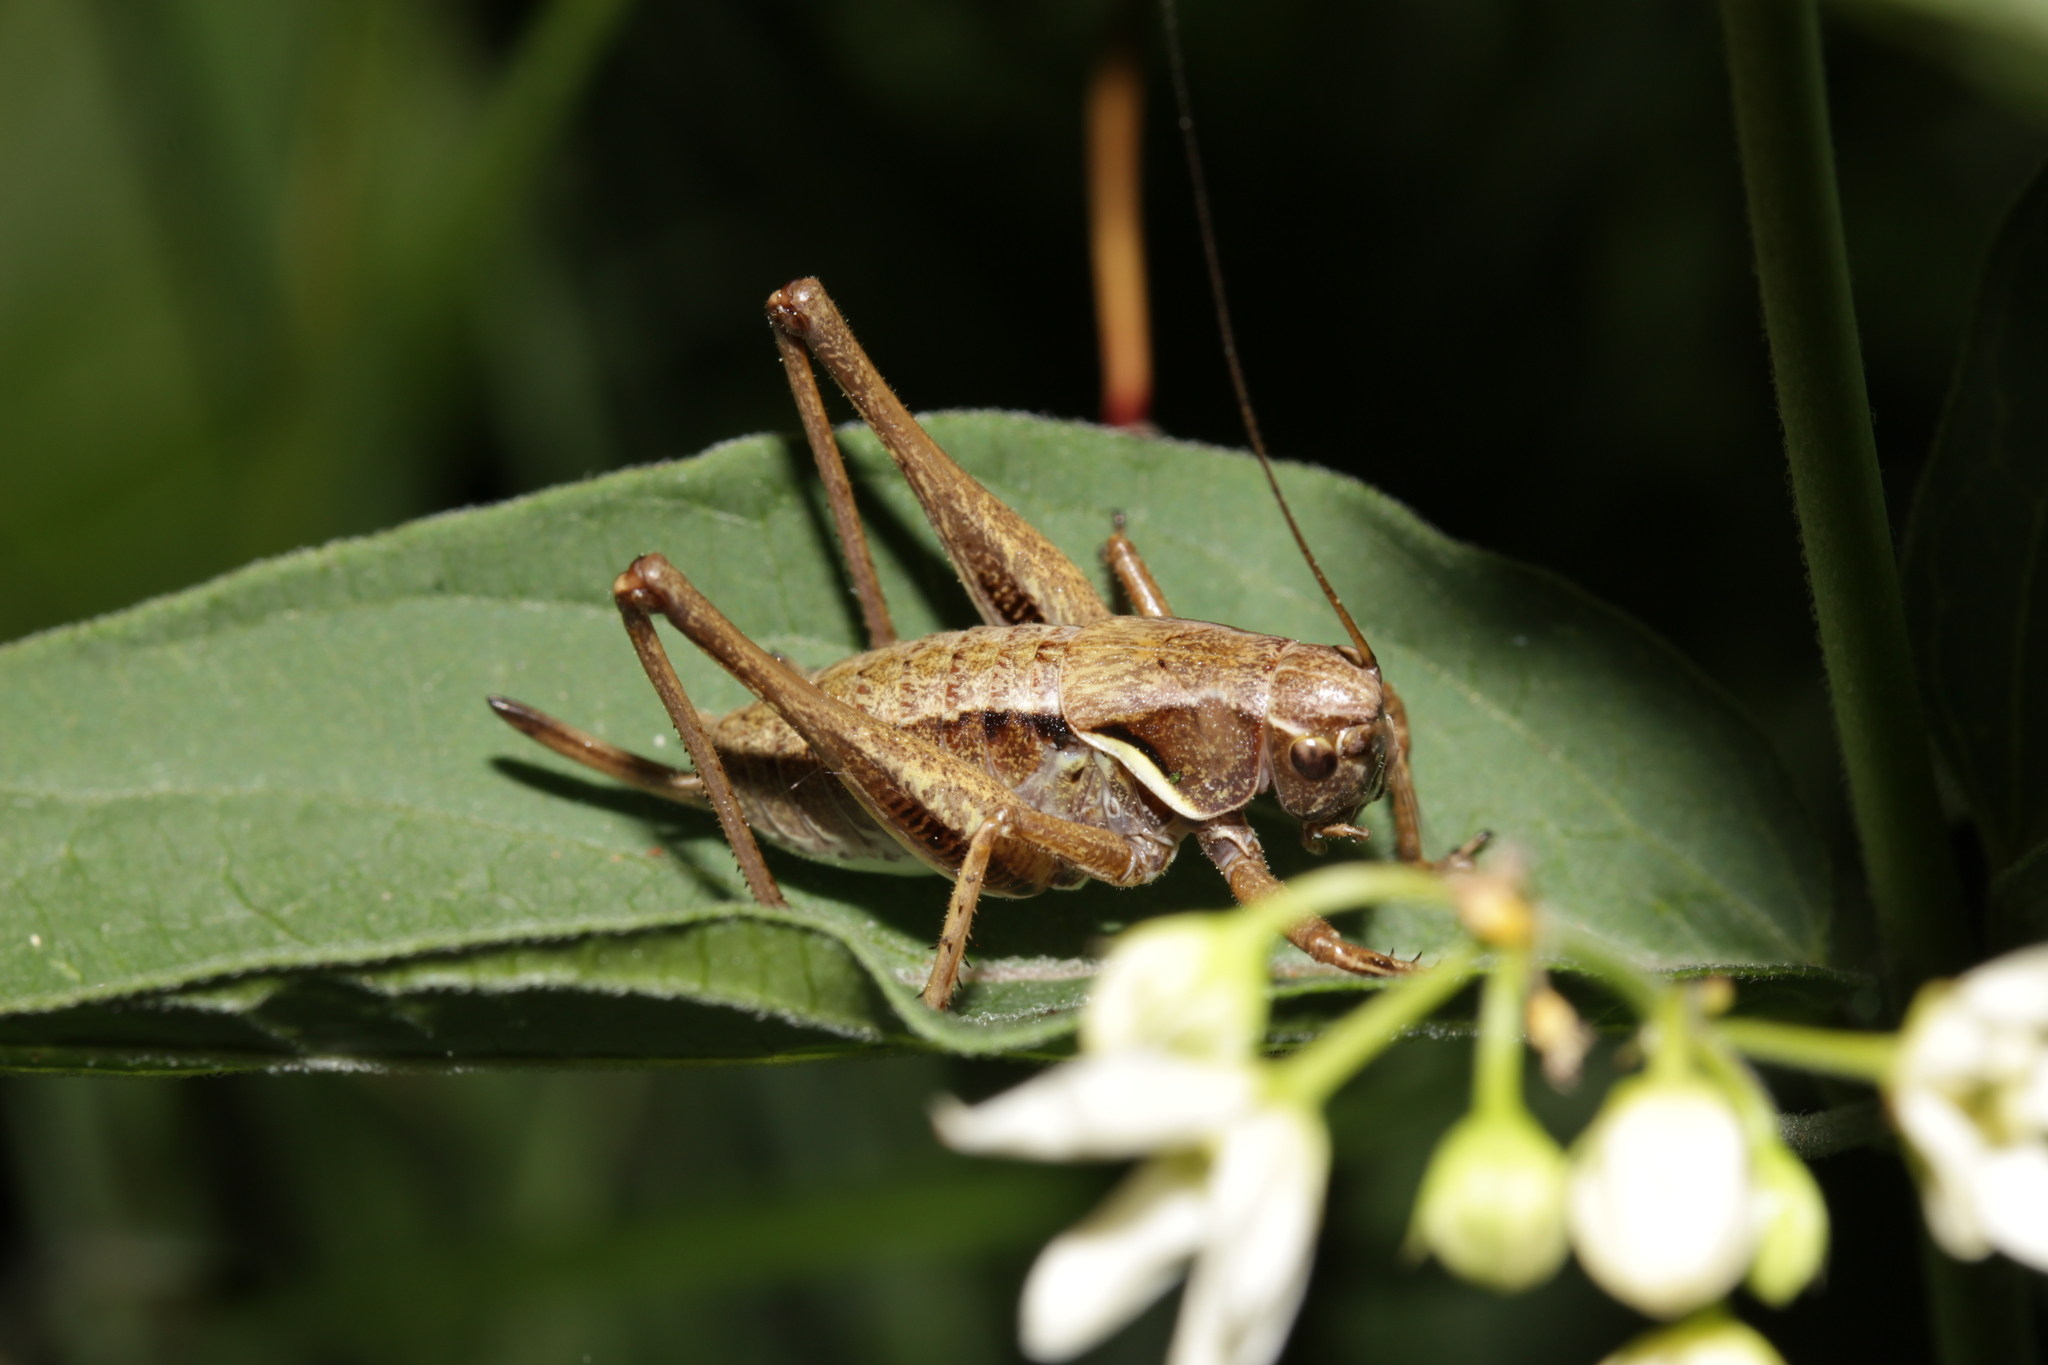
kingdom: Animalia
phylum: Arthropoda
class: Insecta
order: Orthoptera
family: Tettigoniidae
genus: Pholidoptera
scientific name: Pholidoptera aptera
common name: Alpine dark bush-cricket
